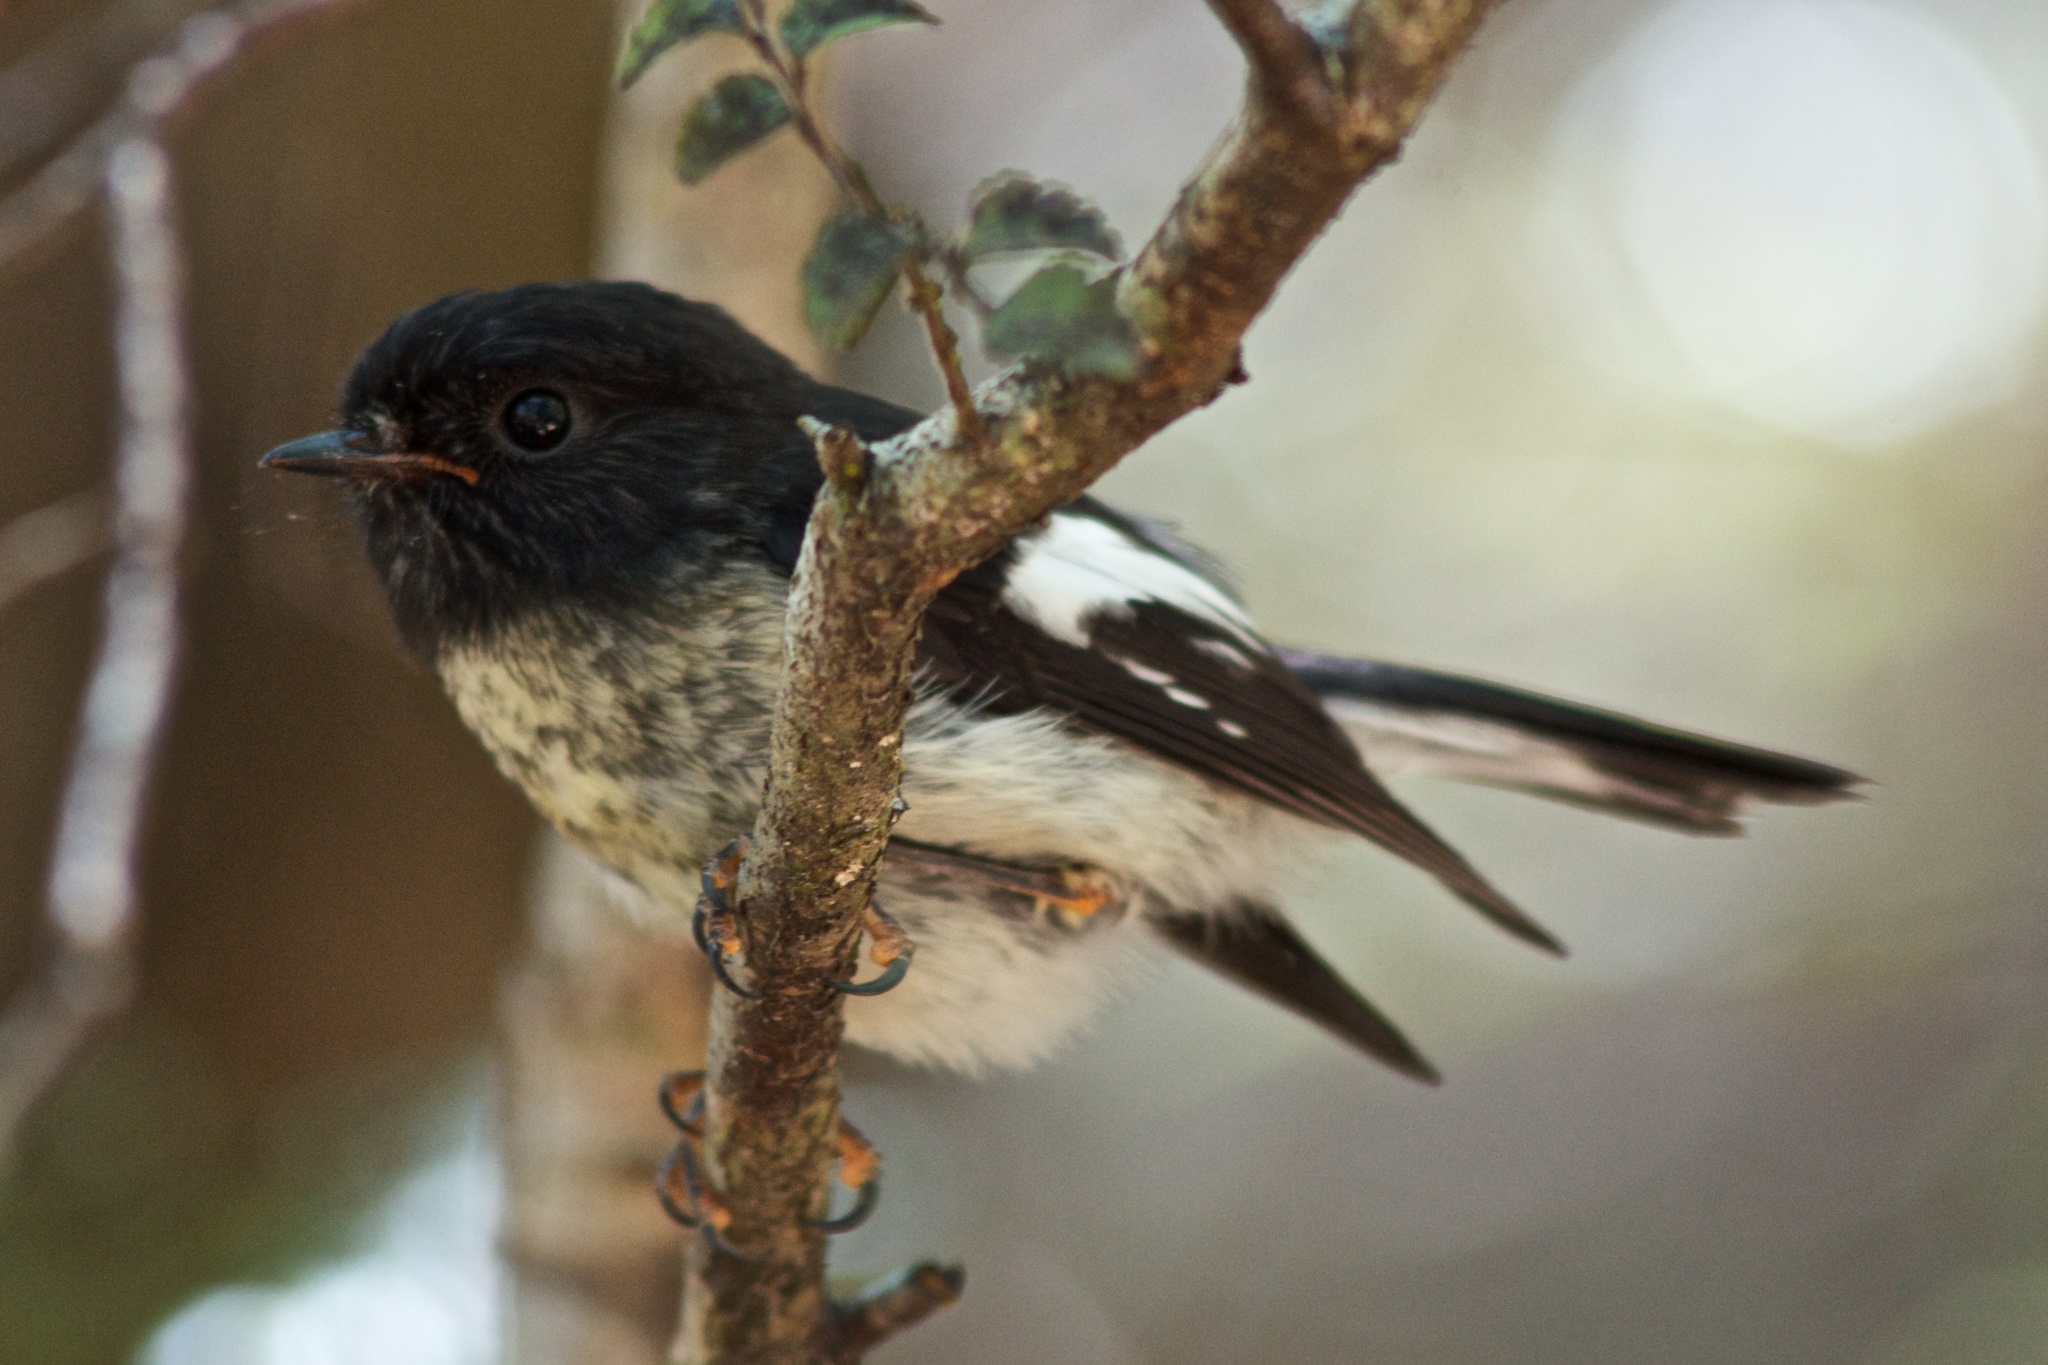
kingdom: Animalia
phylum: Chordata
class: Aves
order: Passeriformes
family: Petroicidae
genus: Petroica
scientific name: Petroica macrocephala
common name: Tomtit
